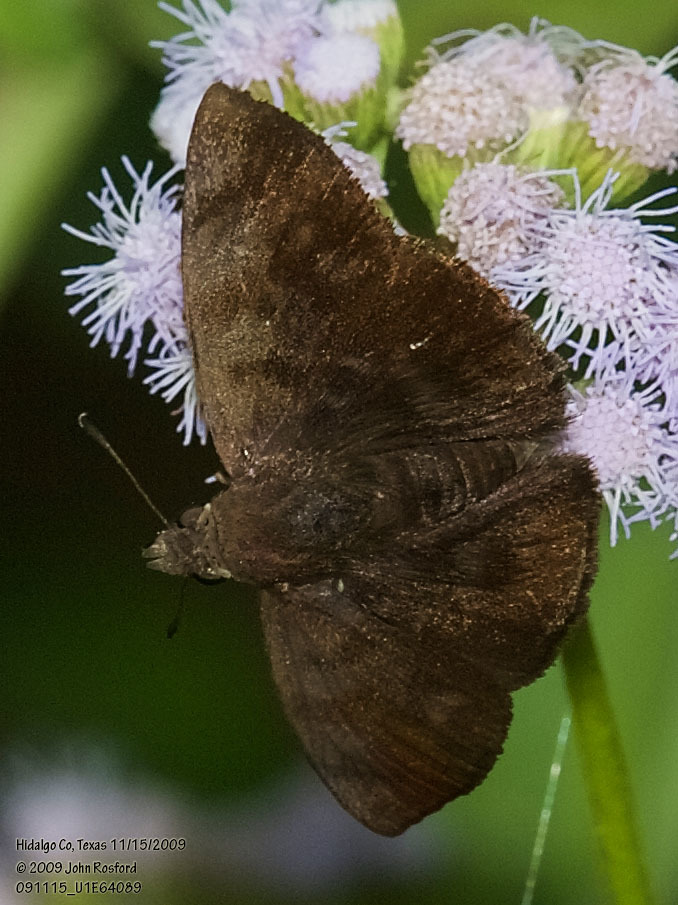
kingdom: Animalia
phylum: Arthropoda
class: Insecta
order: Lepidoptera
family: Hesperiidae
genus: Pellicia
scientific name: Pellicia costimacula
